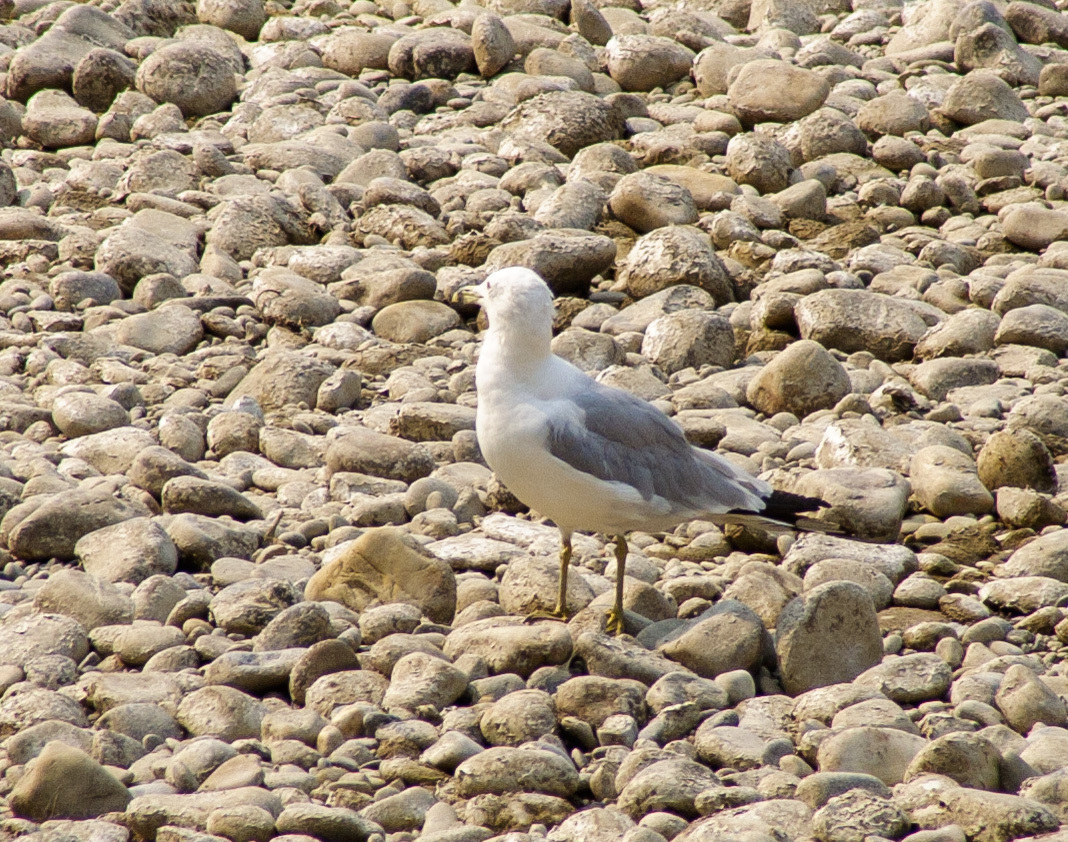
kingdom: Animalia
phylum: Chordata
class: Aves
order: Charadriiformes
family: Laridae
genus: Larus
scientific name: Larus delawarensis
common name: Ring-billed gull
